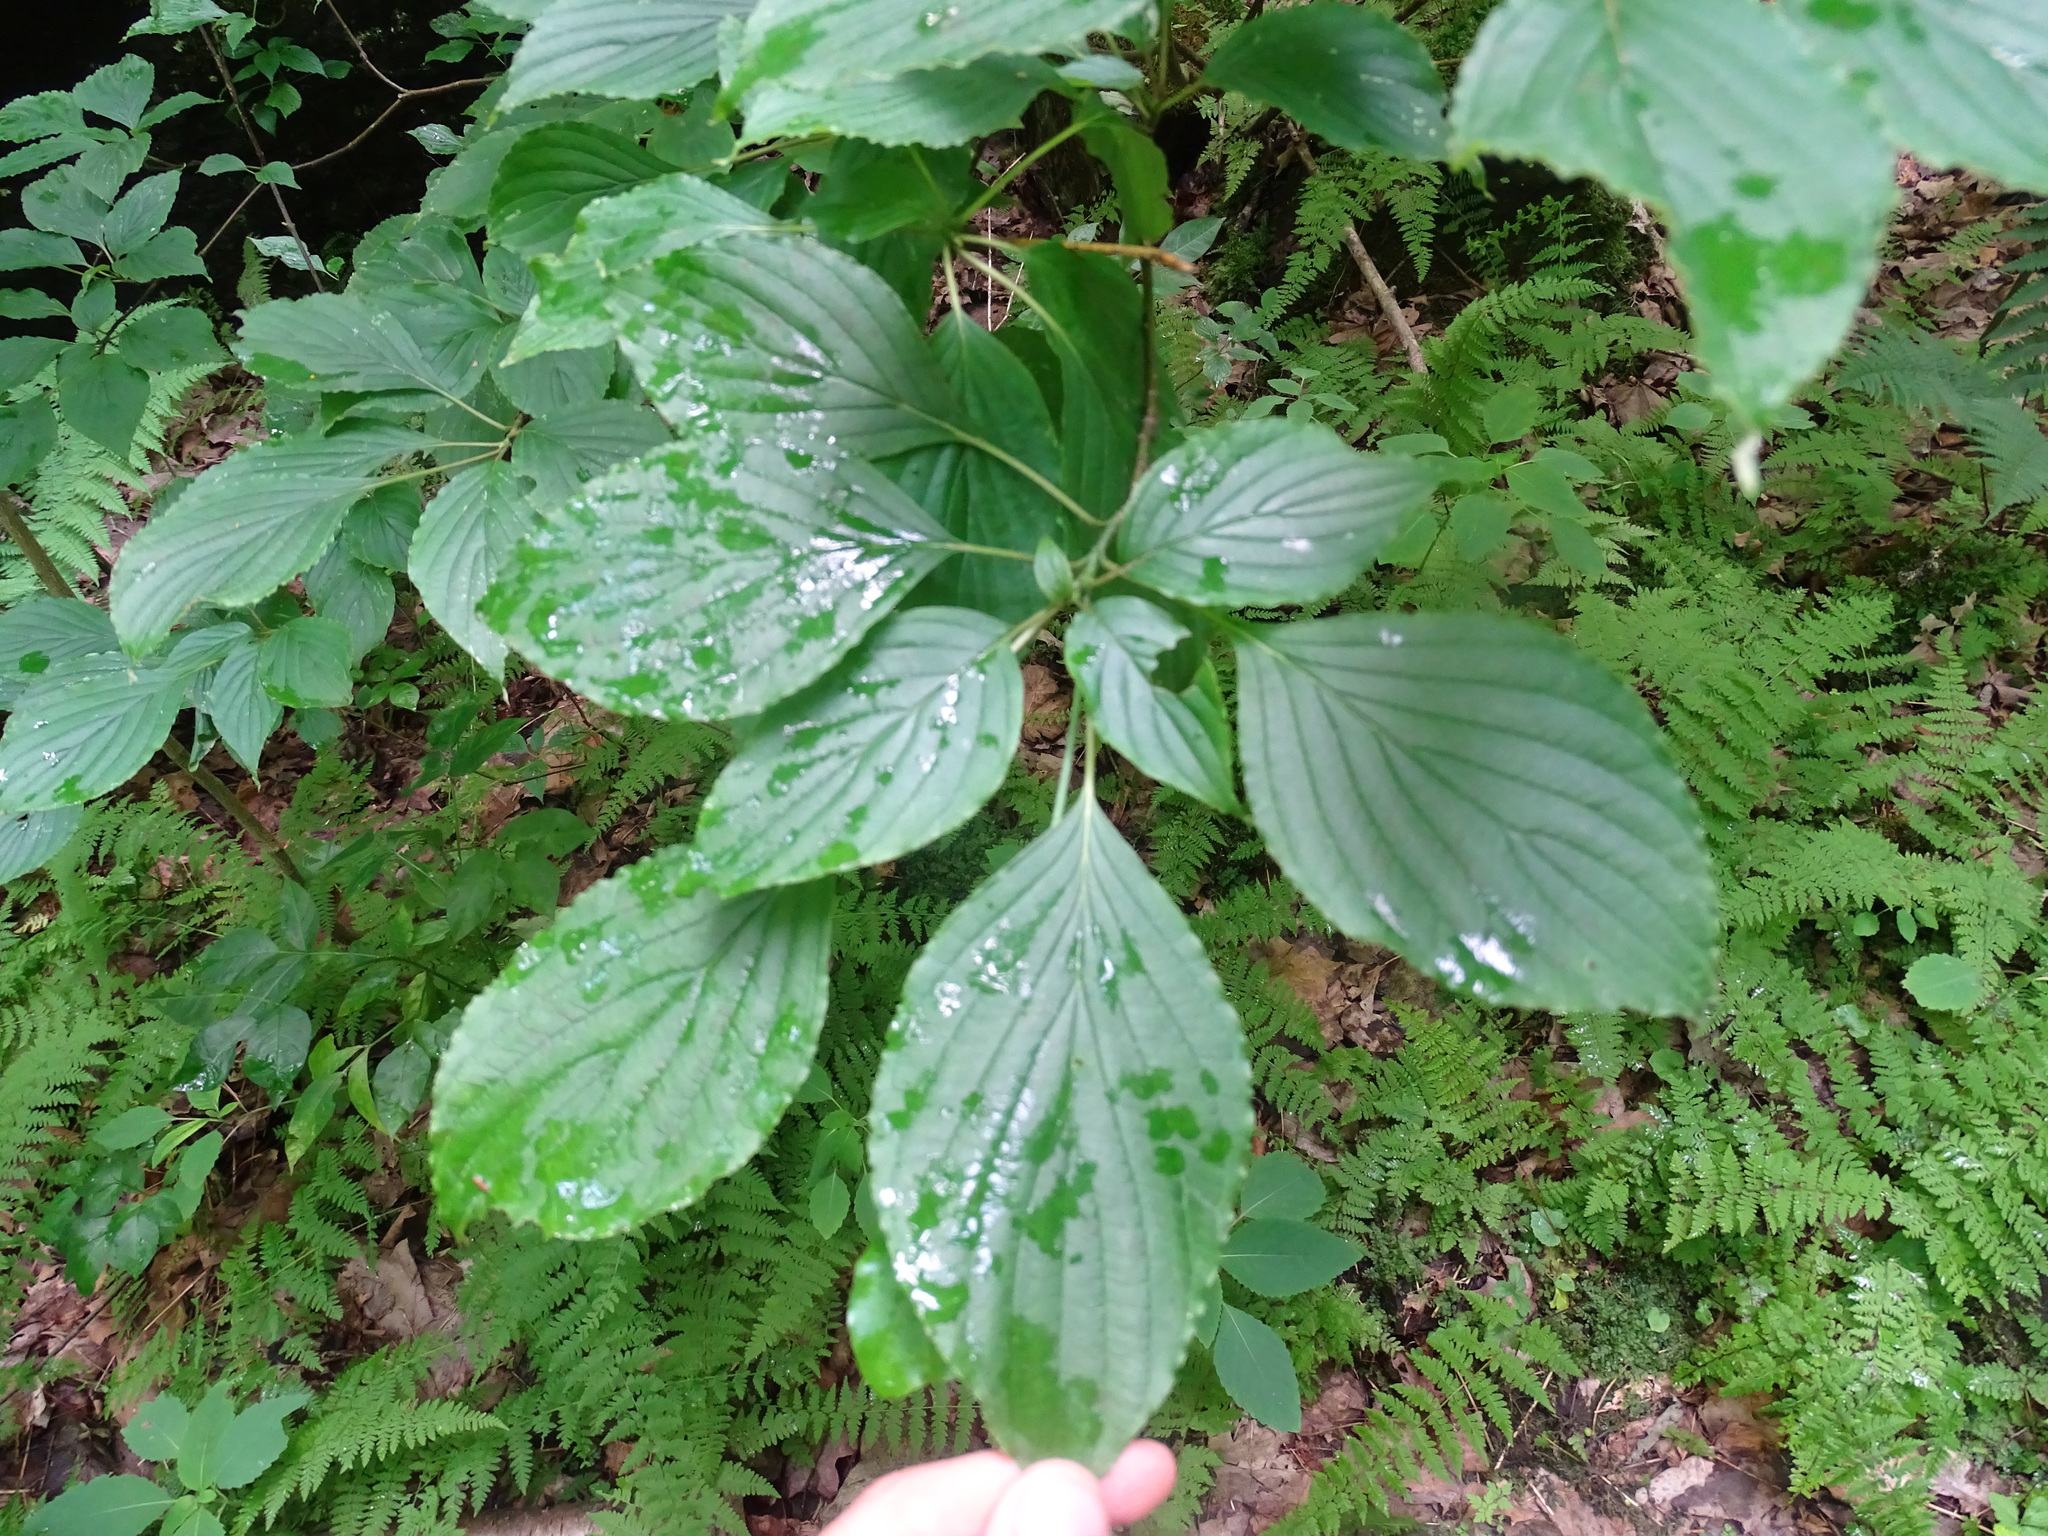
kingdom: Plantae
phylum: Tracheophyta
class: Magnoliopsida
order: Cornales
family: Cornaceae
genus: Cornus
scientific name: Cornus alternifolia
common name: Pagoda dogwood
